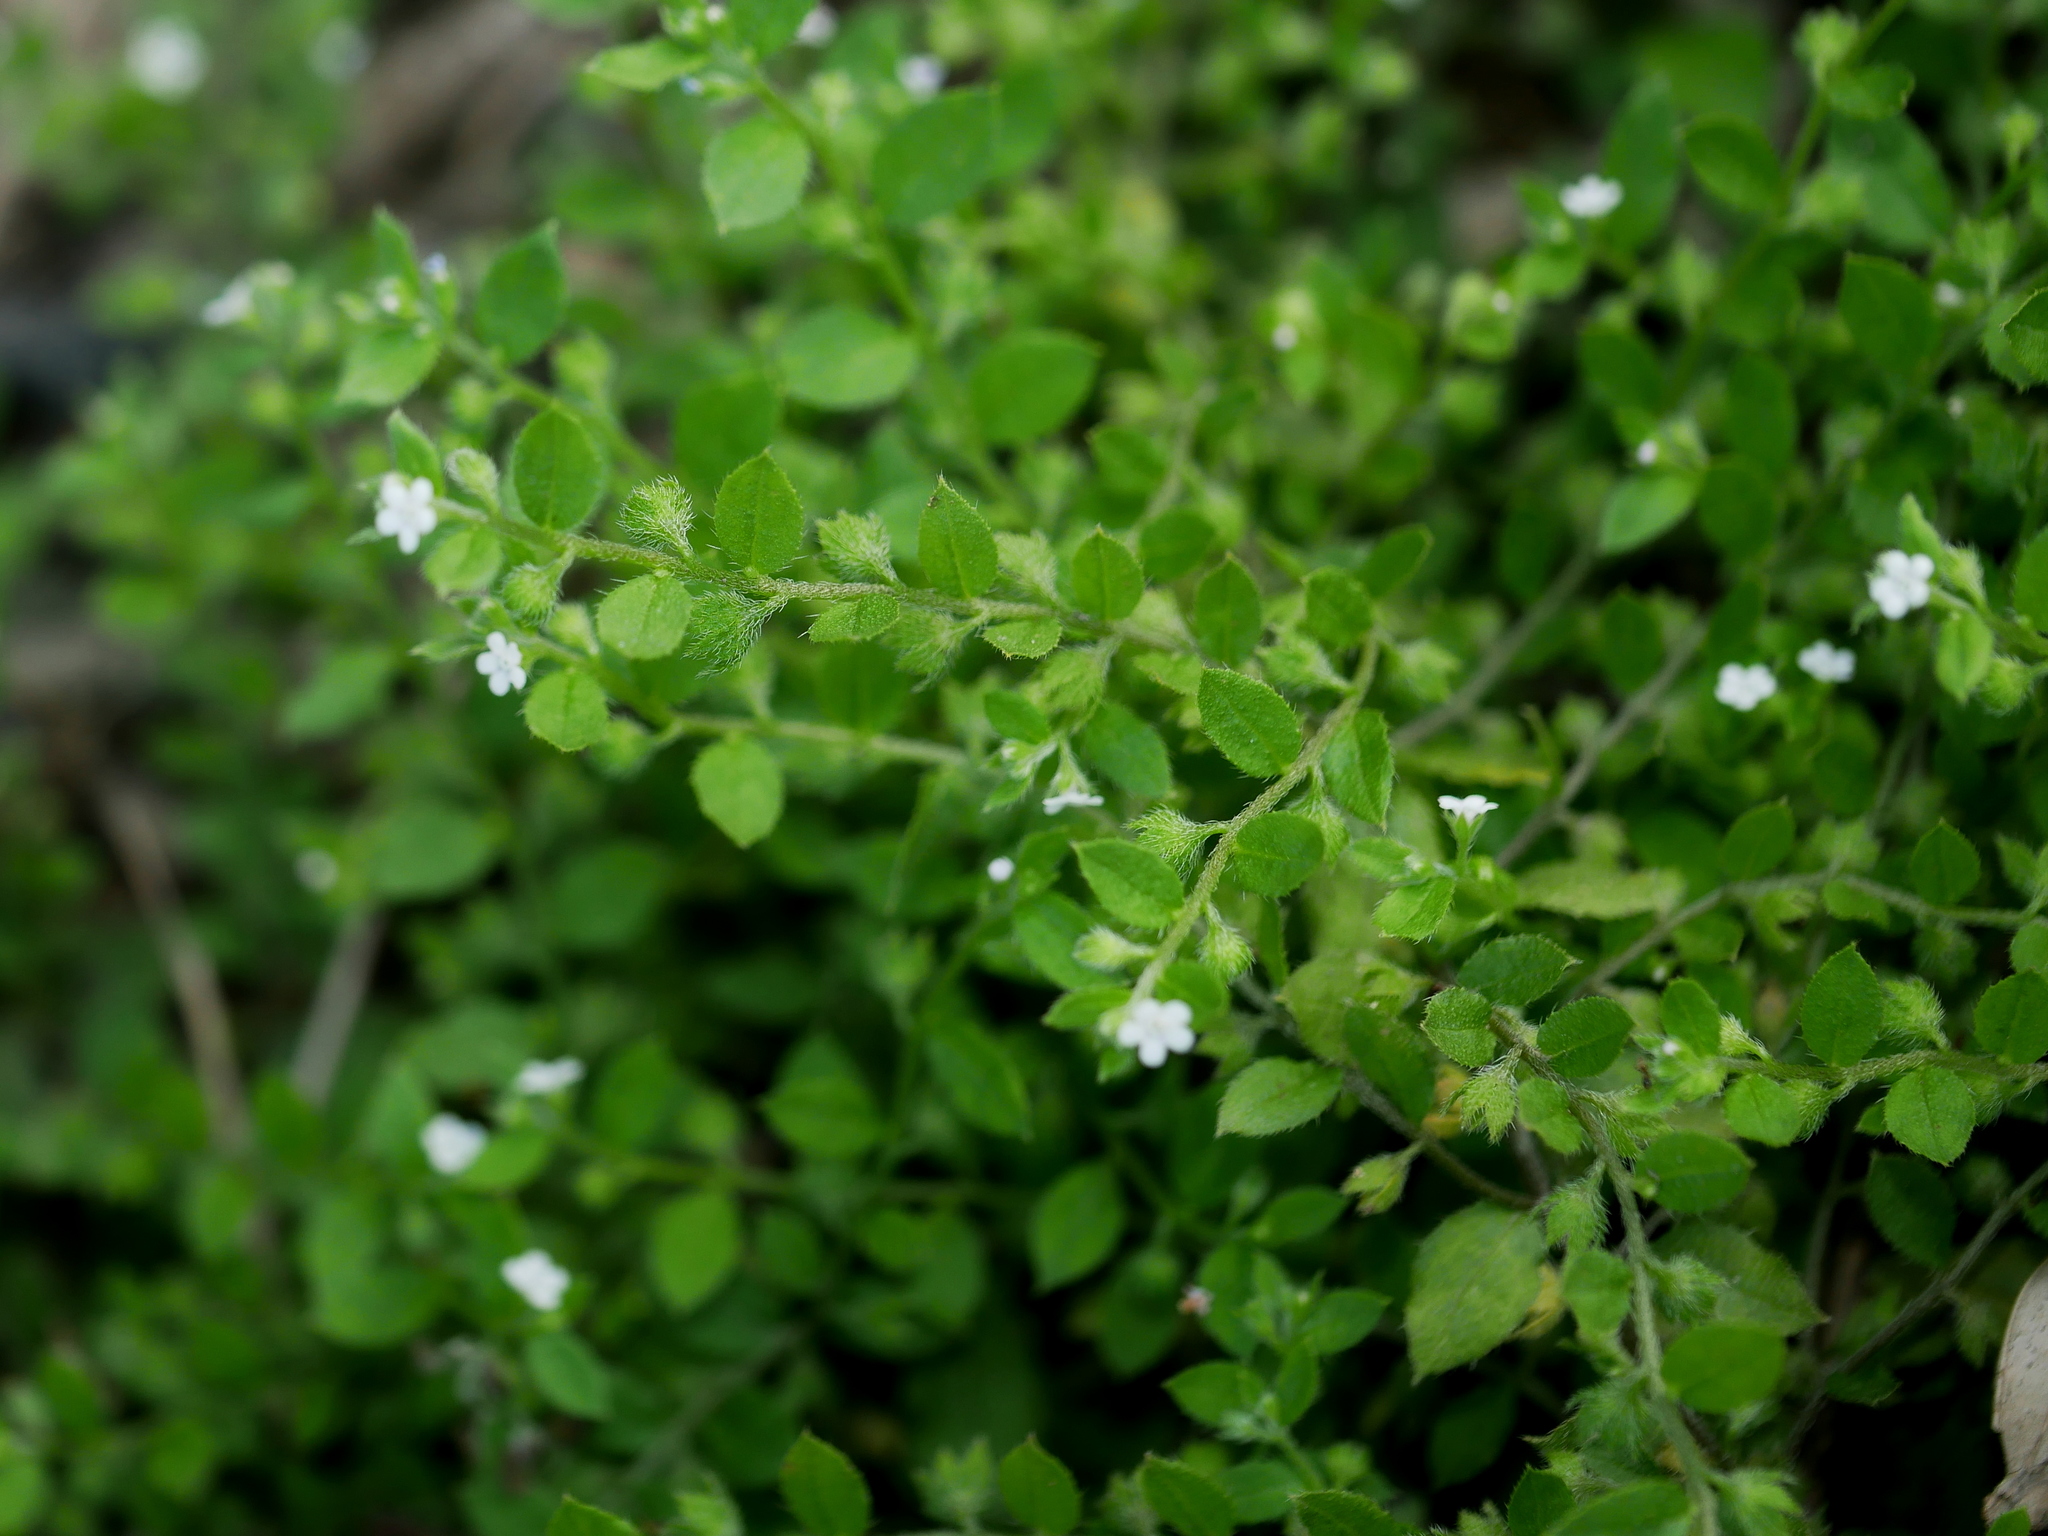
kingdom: Plantae
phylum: Tracheophyta
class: Magnoliopsida
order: Boraginales
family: Boraginaceae
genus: Bothriospermum
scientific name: Bothriospermum zeylanicum
